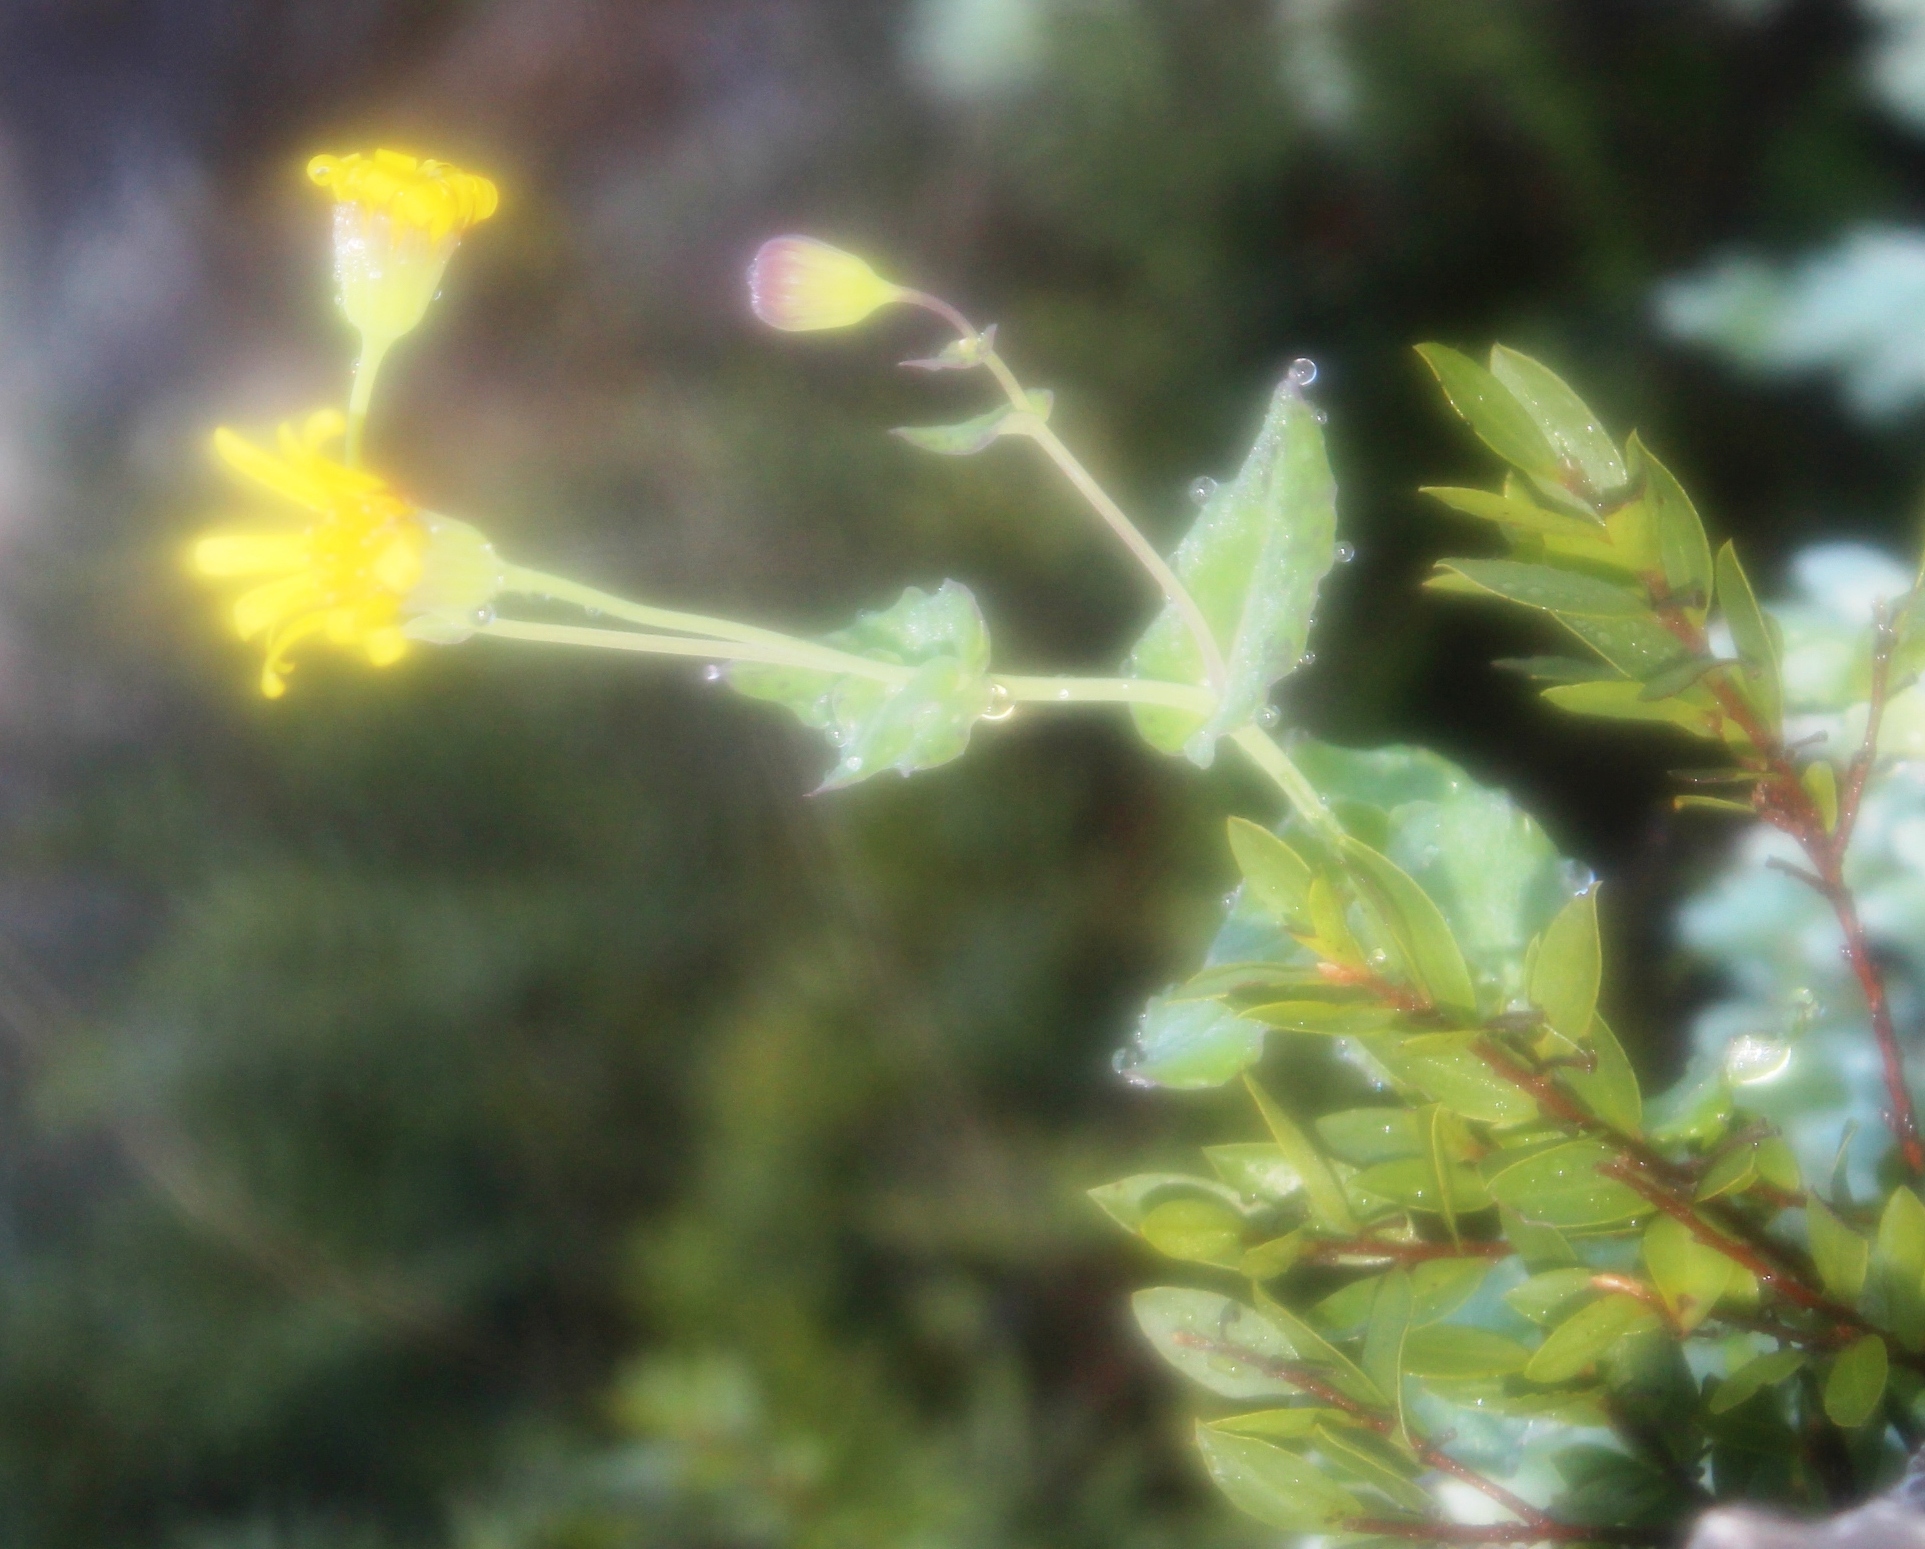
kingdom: Plantae
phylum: Tracheophyta
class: Magnoliopsida
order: Asterales
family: Asteraceae
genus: Sonchus
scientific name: Sonchus oleraceus
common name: Common sowthistle
